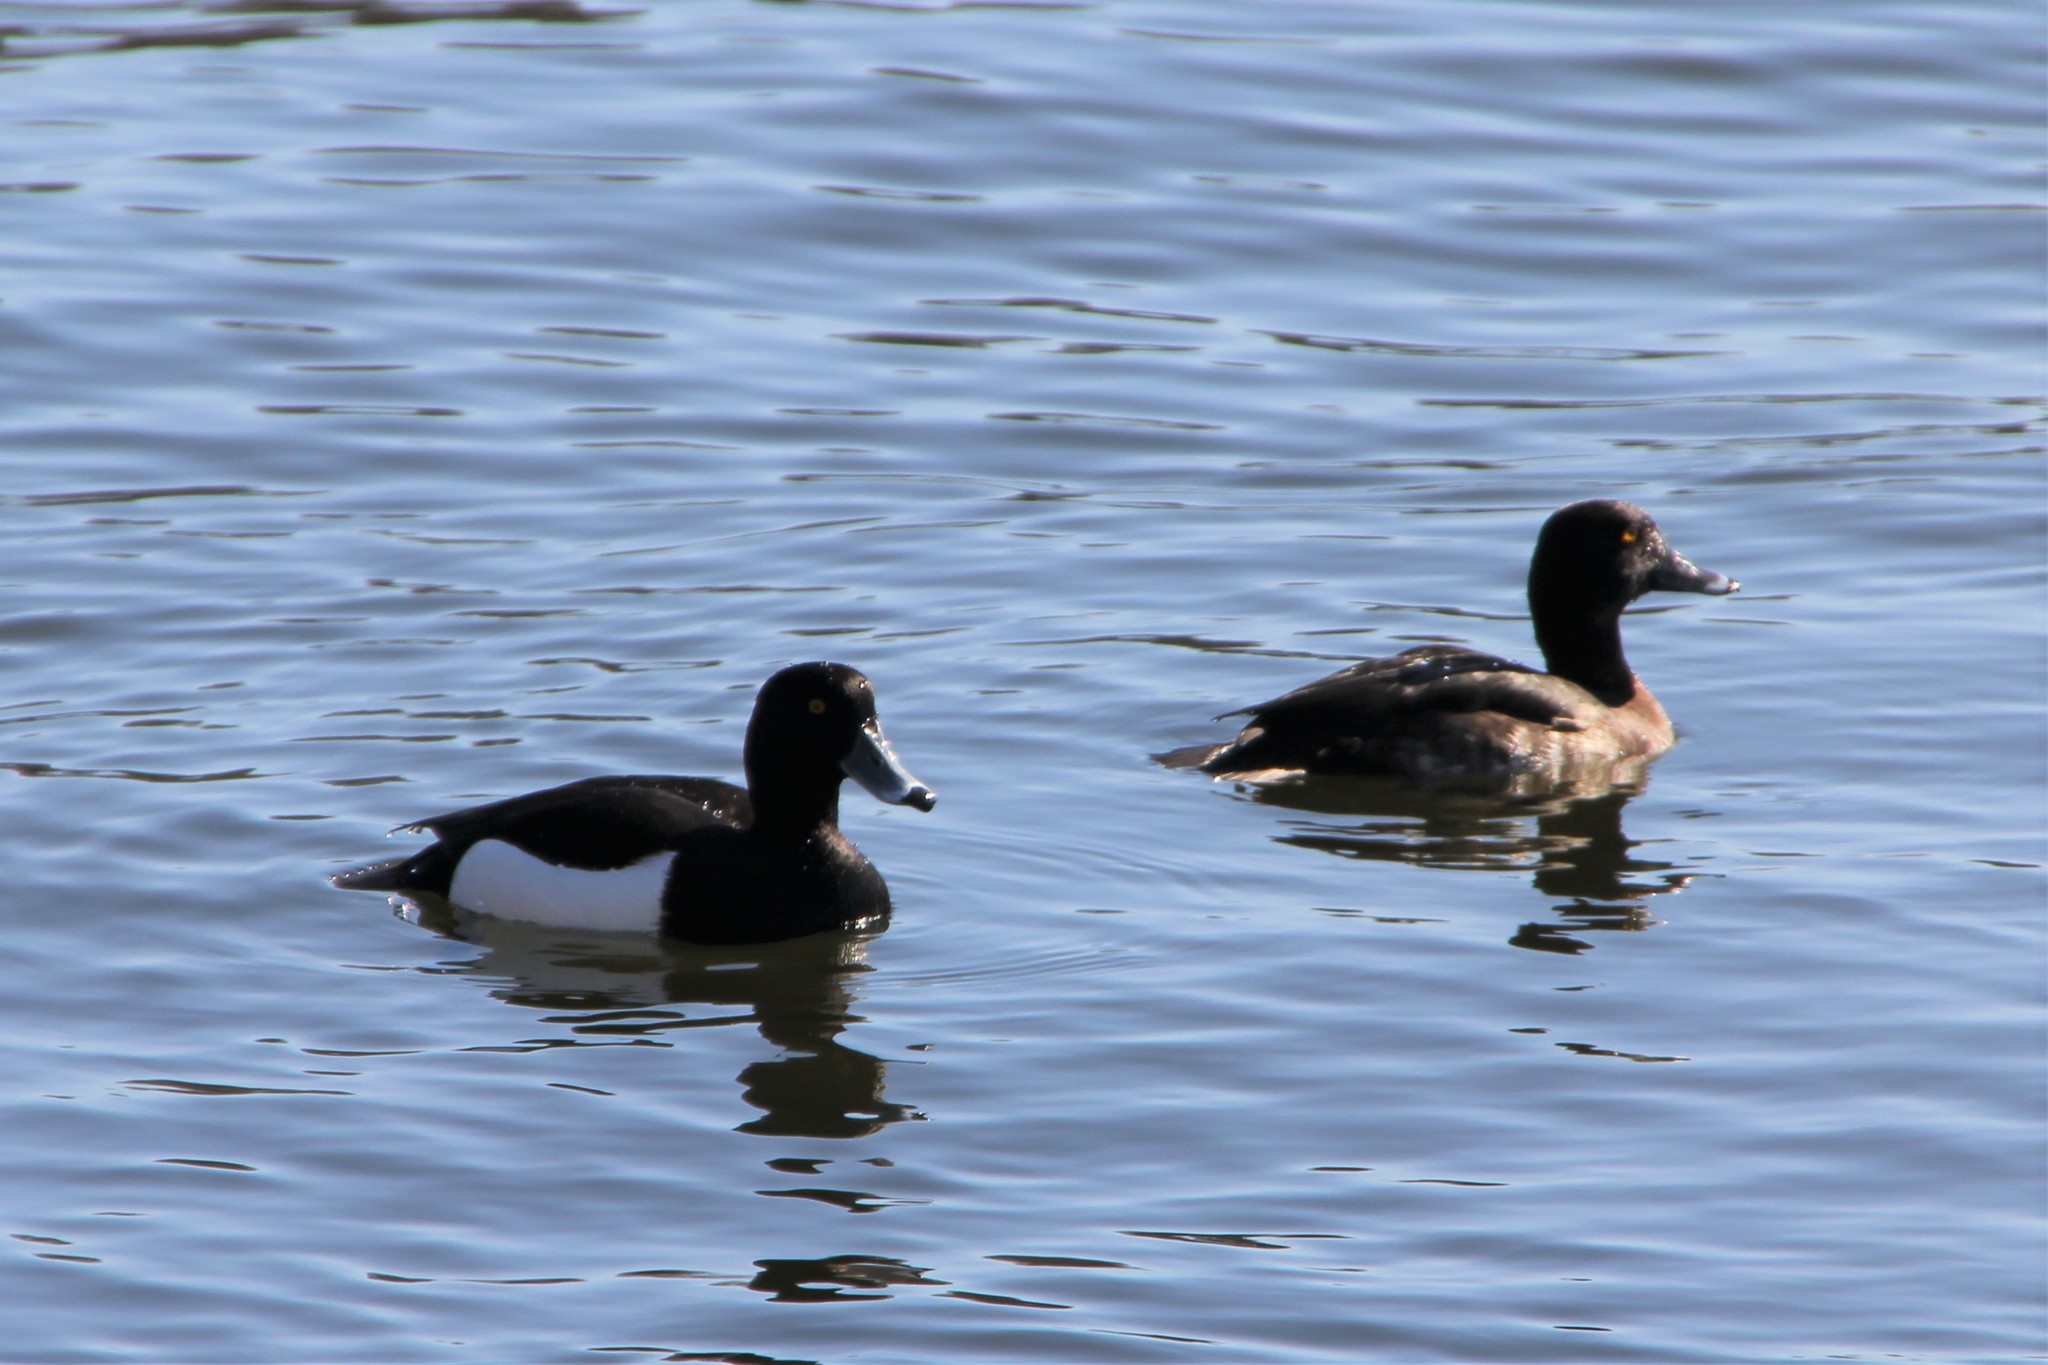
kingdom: Animalia
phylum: Chordata
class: Aves
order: Anseriformes
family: Anatidae
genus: Aythya
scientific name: Aythya fuligula
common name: Tufted duck
